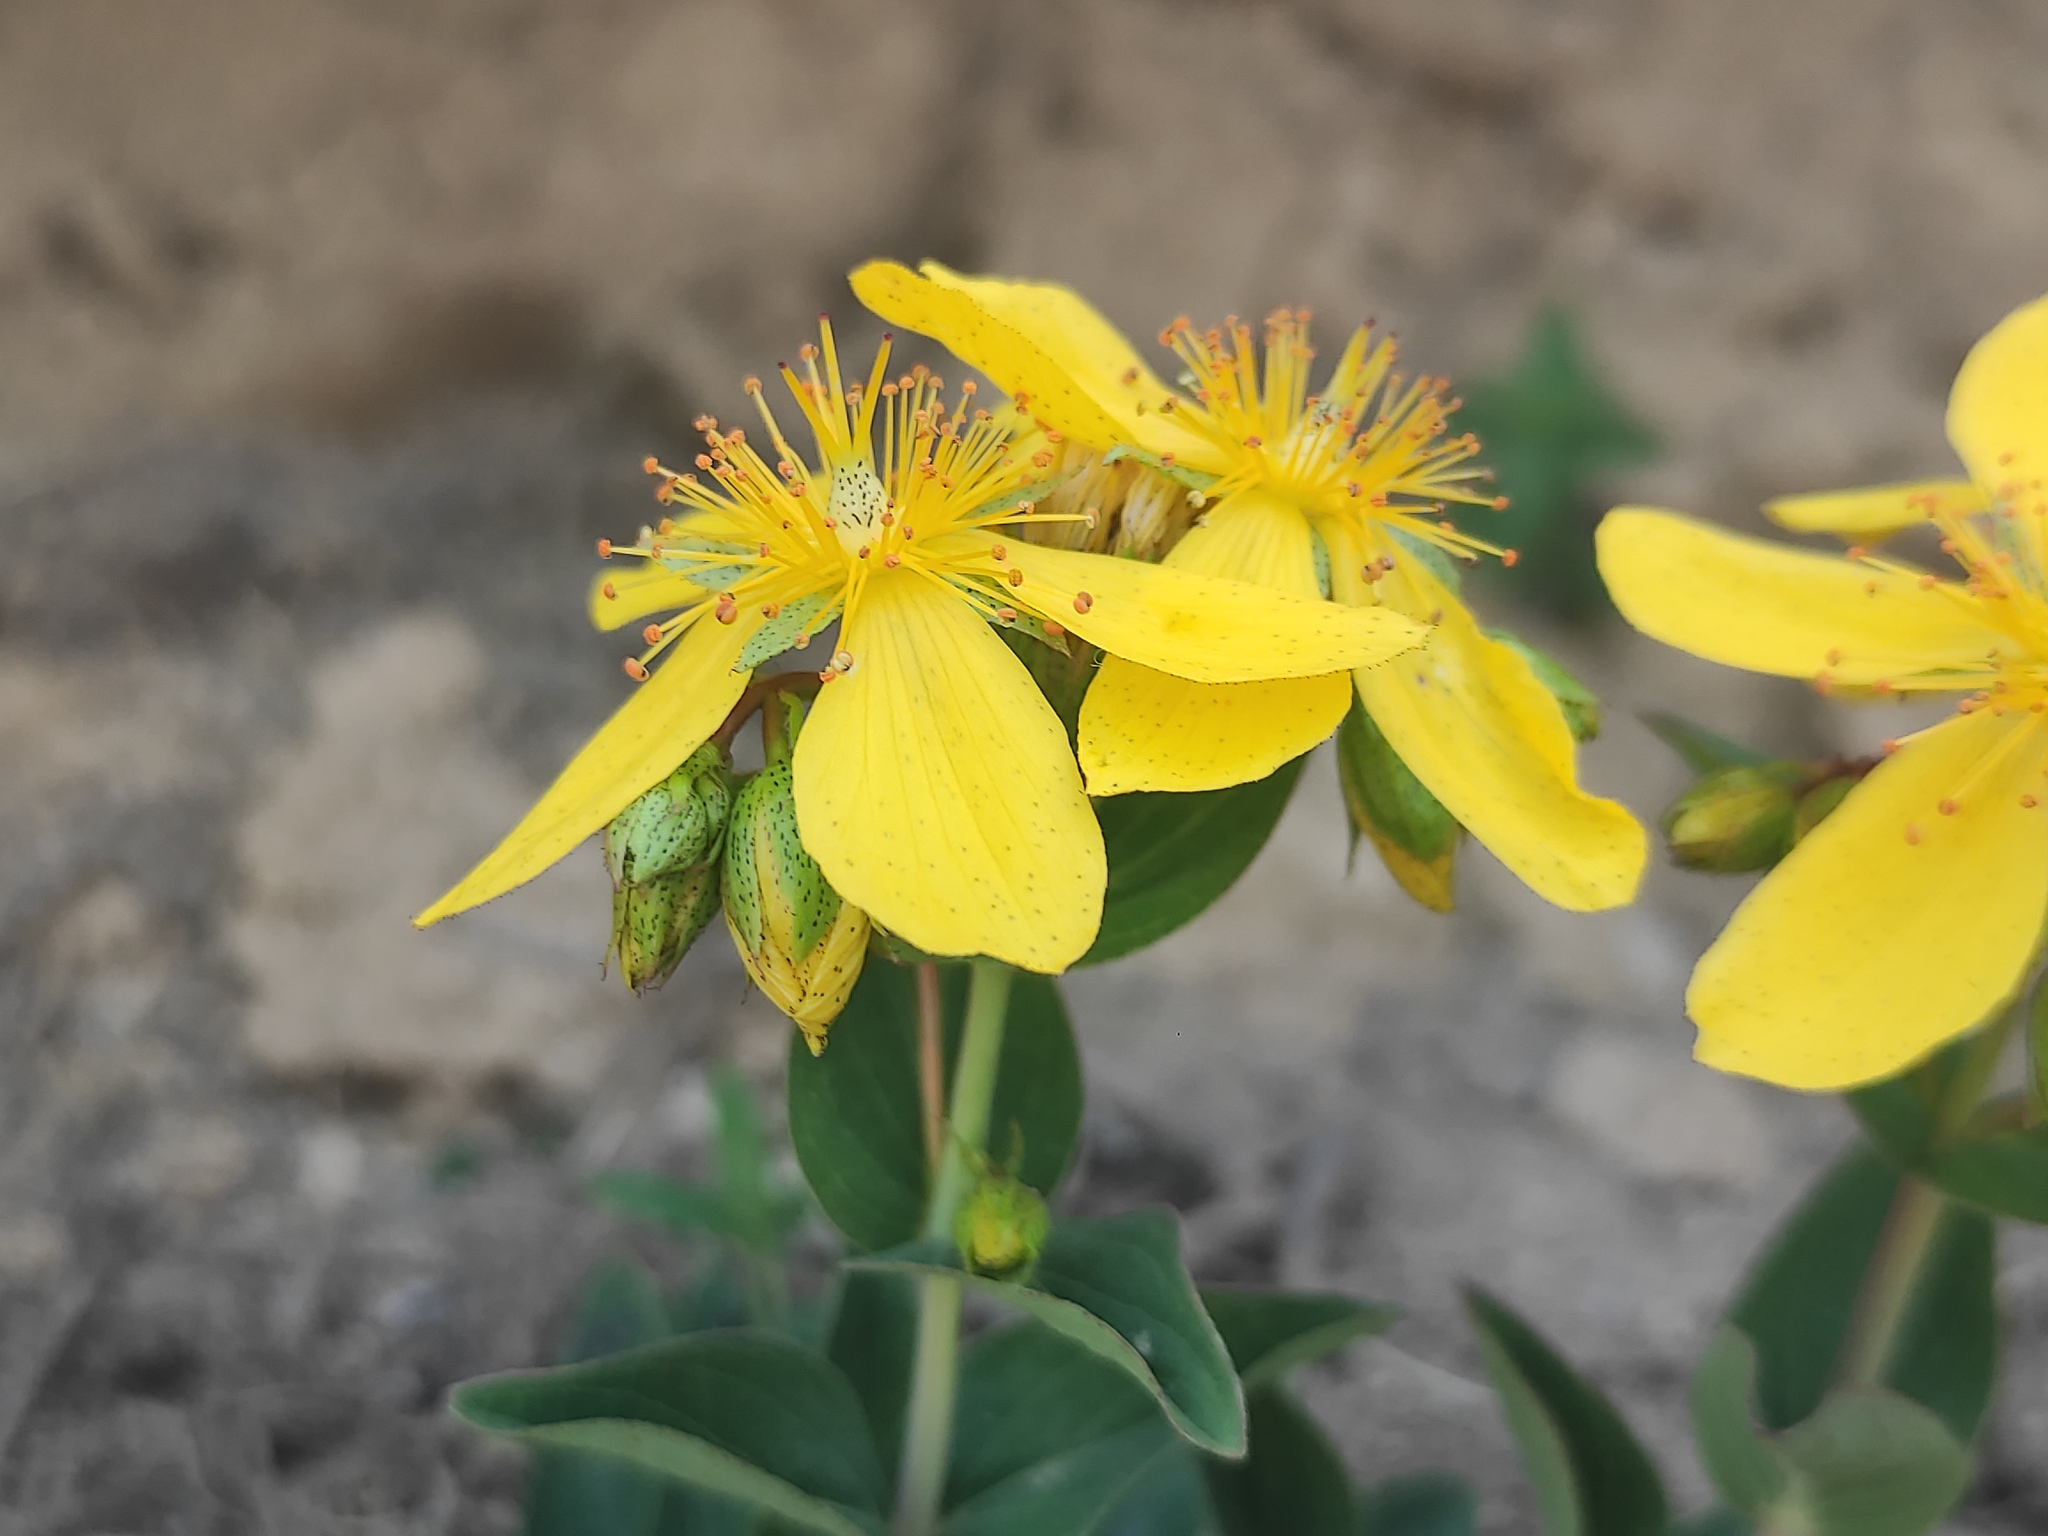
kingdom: Plantae
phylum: Tracheophyta
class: Magnoliopsida
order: Malpighiales
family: Hypericaceae
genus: Hypericum
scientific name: Hypericum richeri
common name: Alpine st john's-wort
